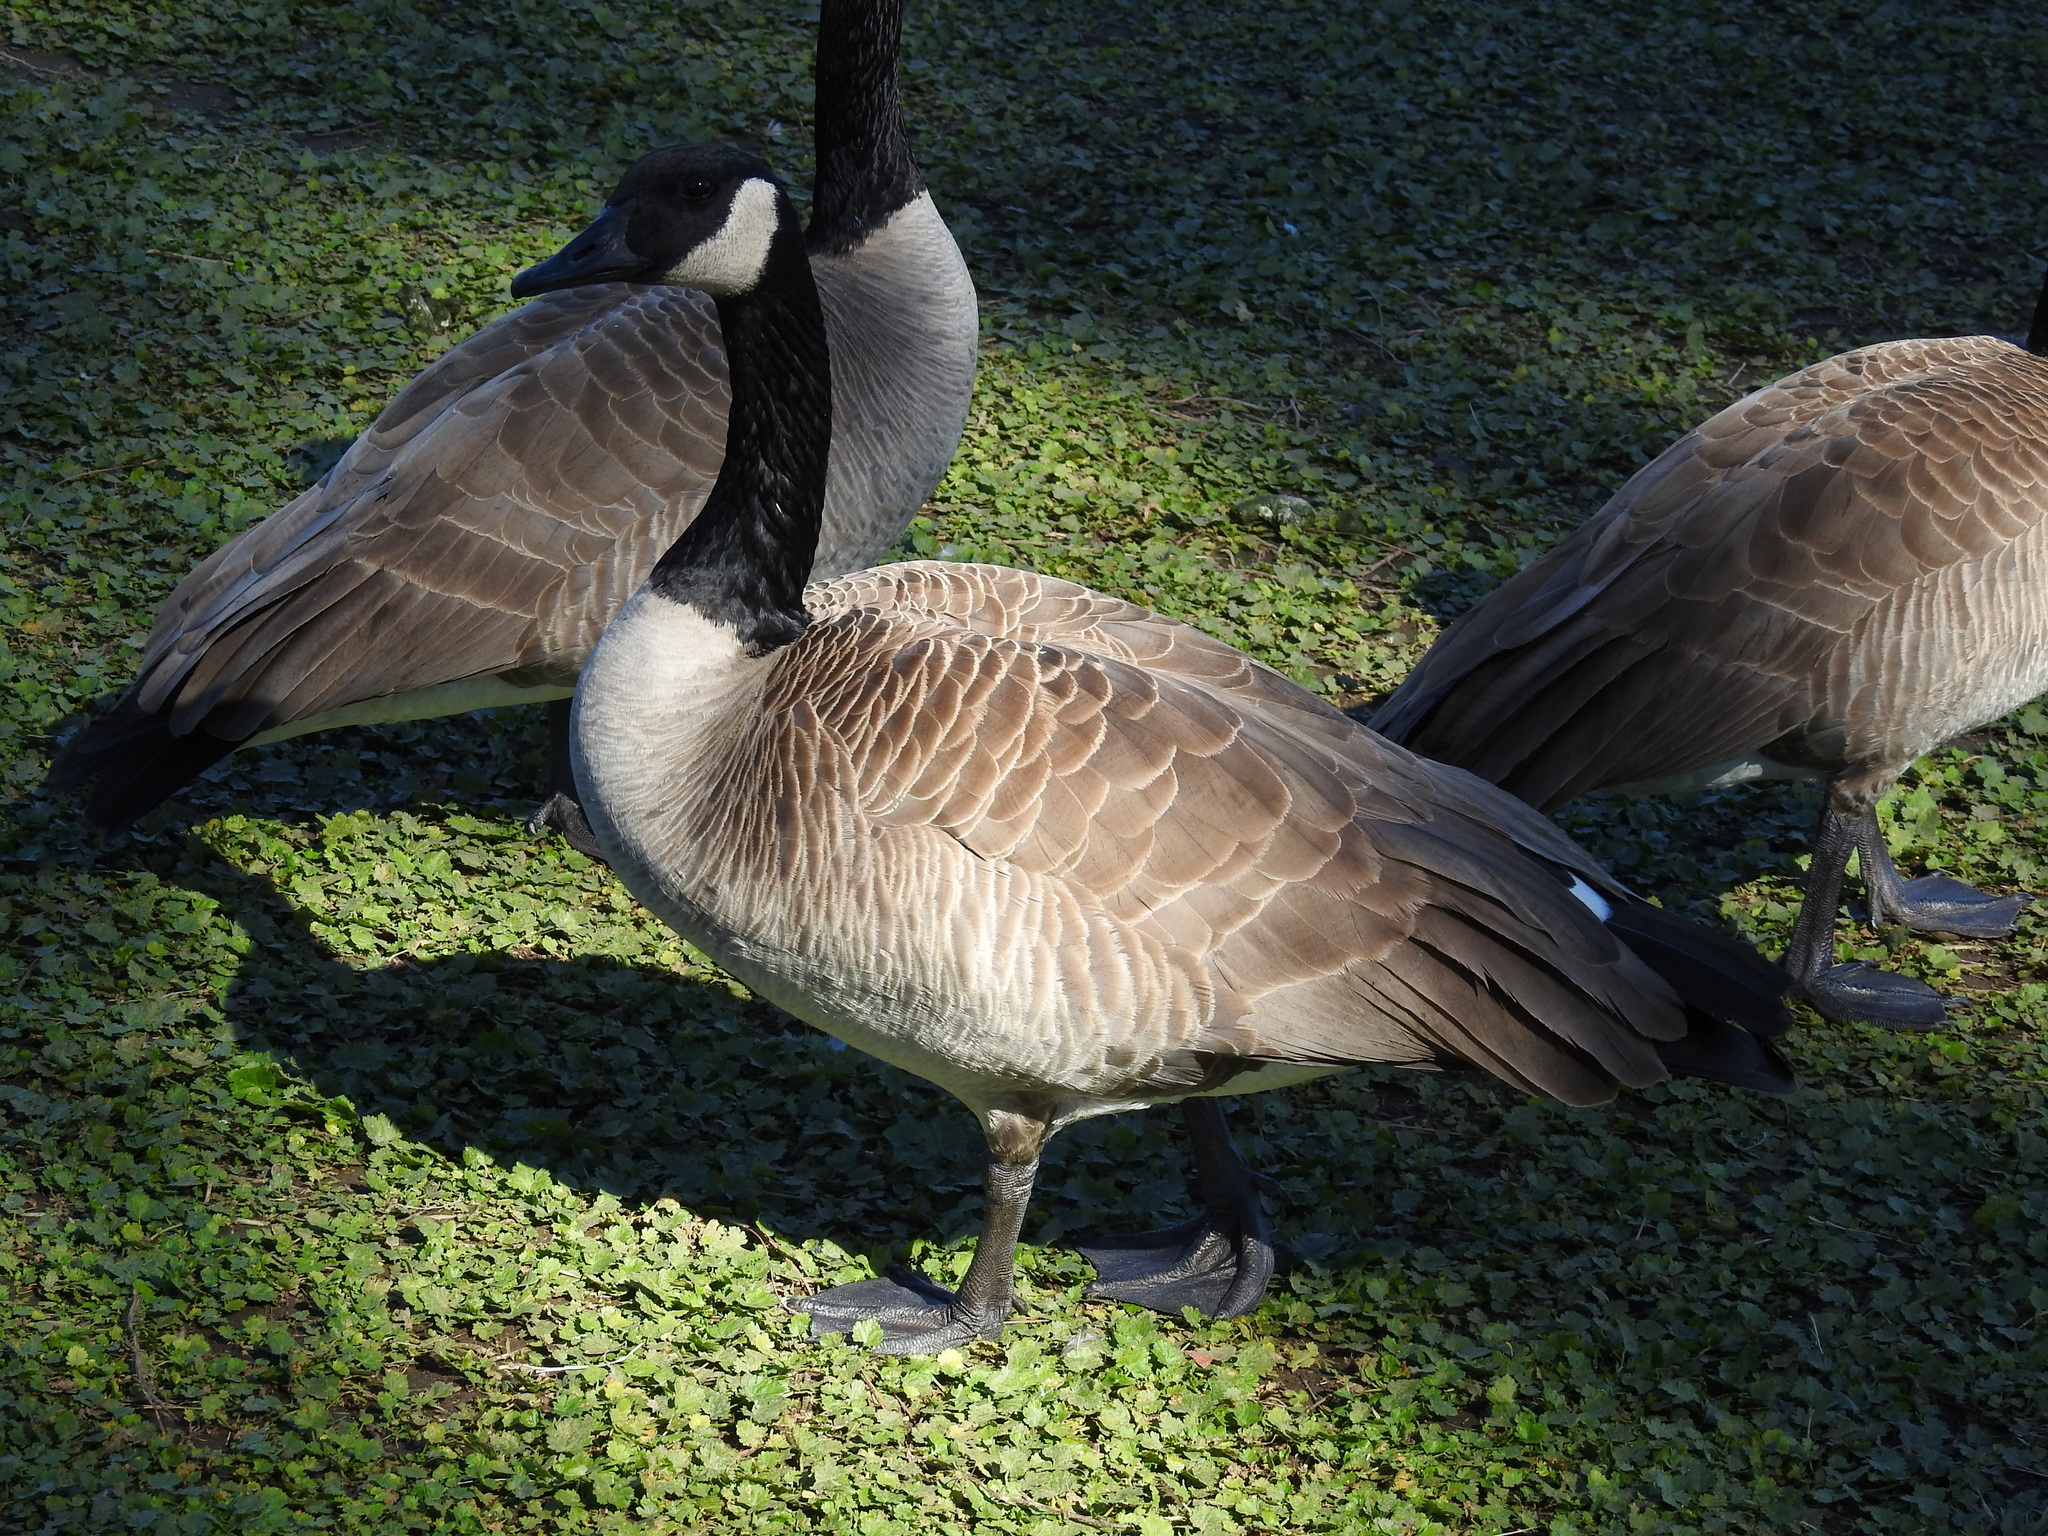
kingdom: Animalia
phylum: Chordata
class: Aves
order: Anseriformes
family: Anatidae
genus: Branta
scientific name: Branta canadensis
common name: Canada goose
